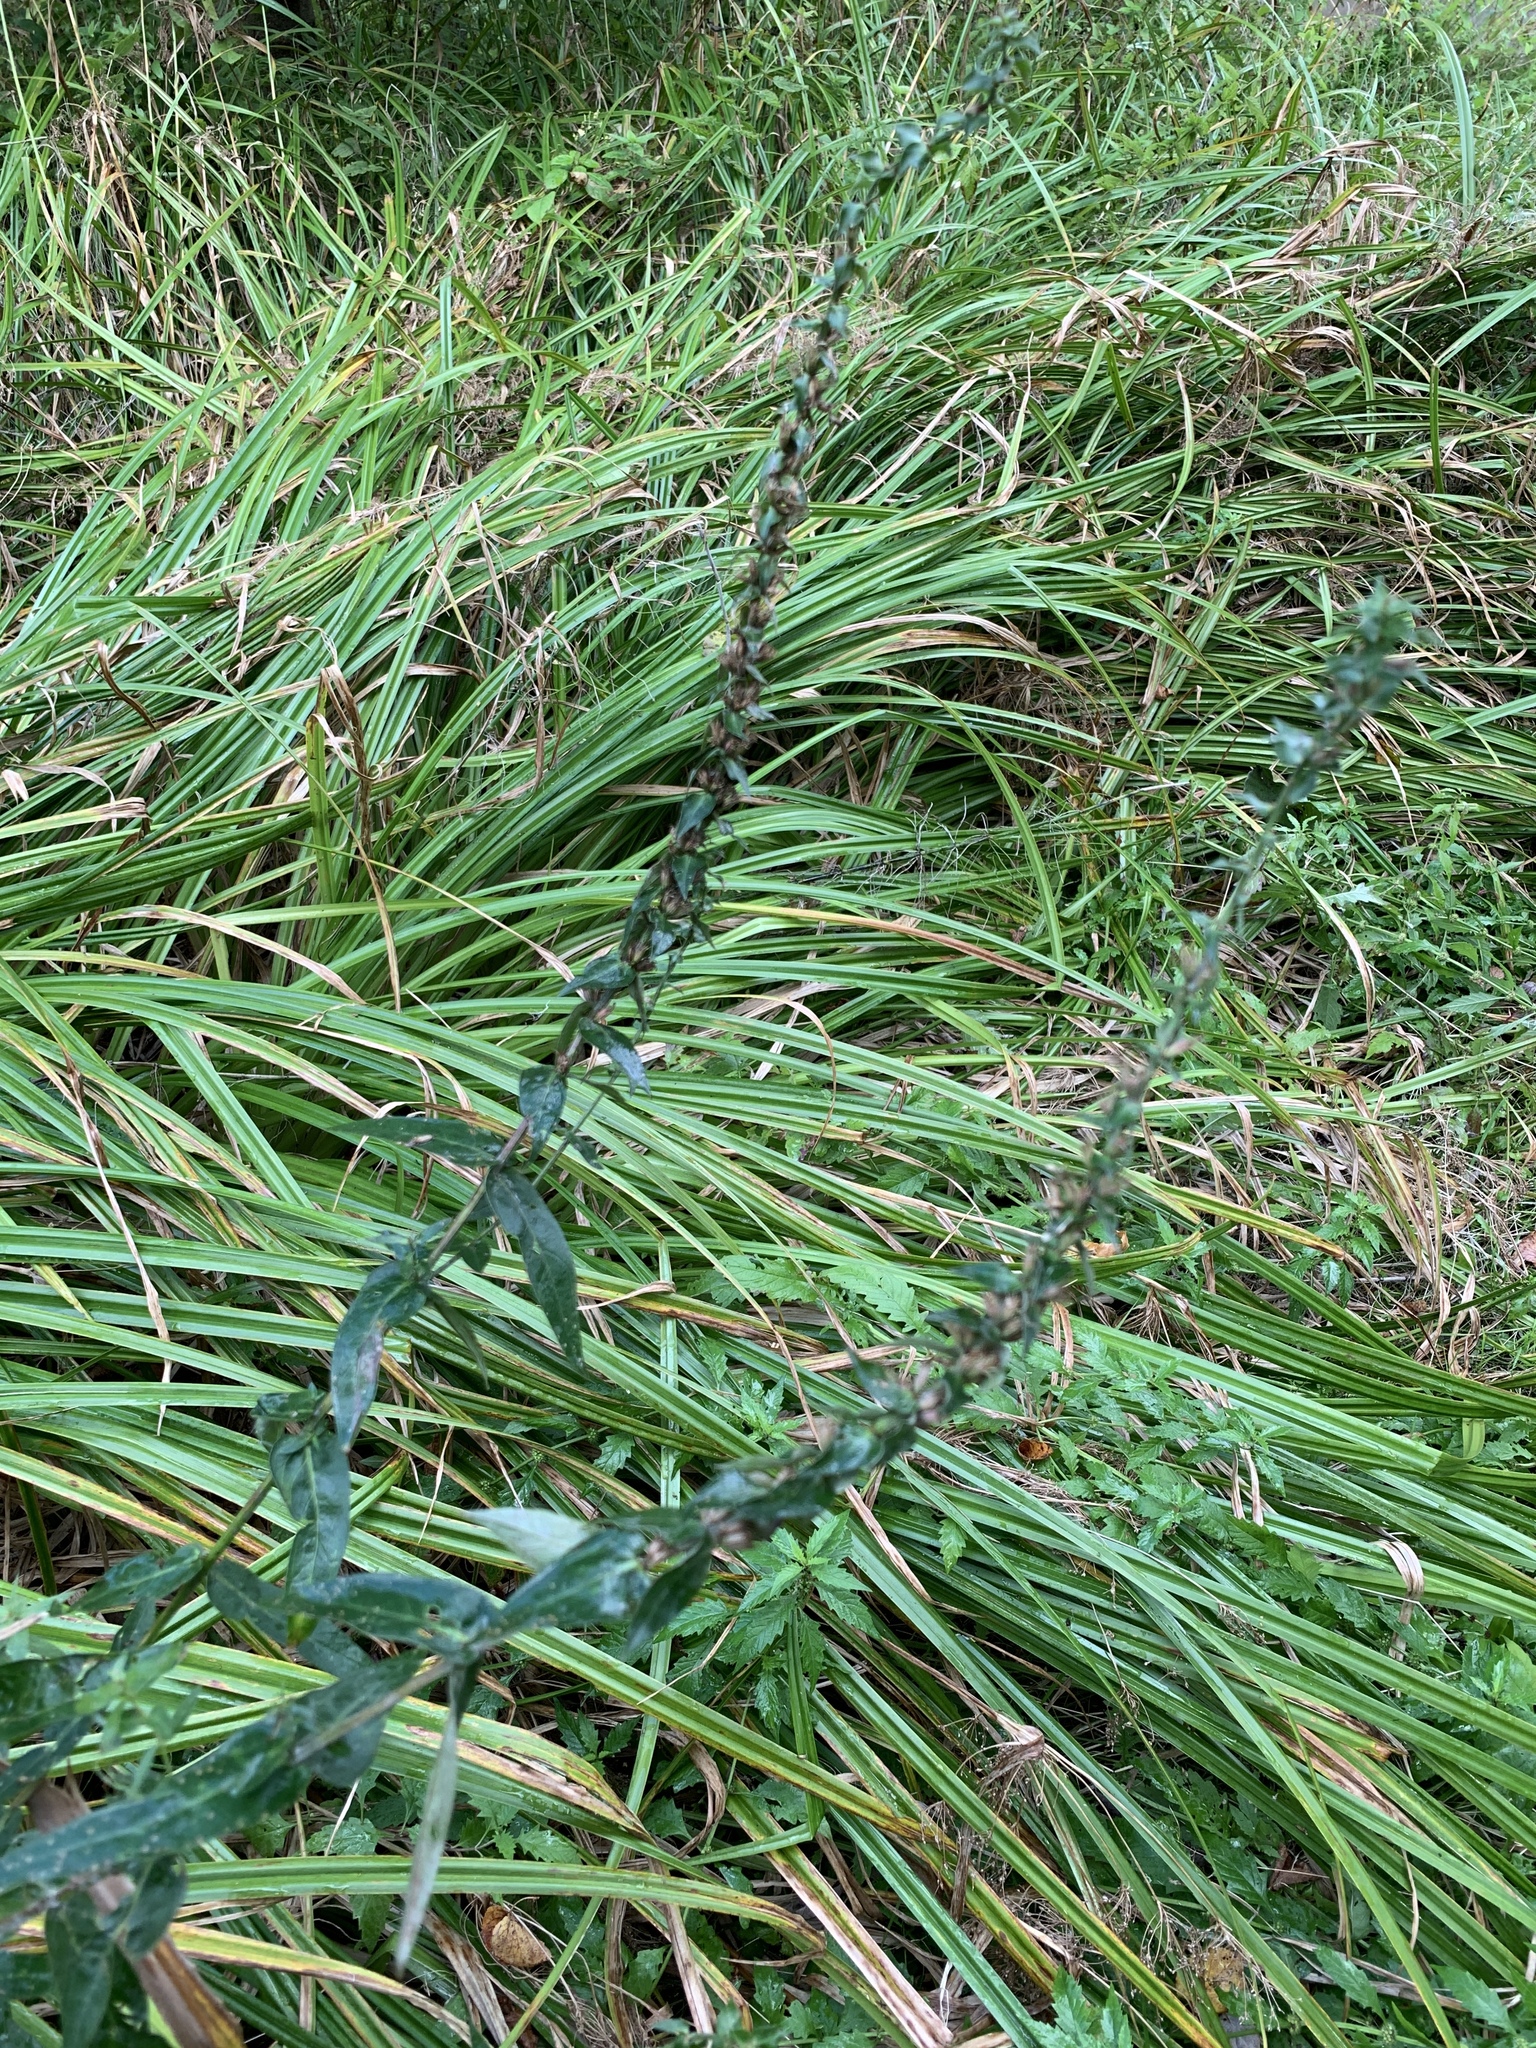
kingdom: Plantae
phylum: Tracheophyta
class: Magnoliopsida
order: Myrtales
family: Lythraceae
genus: Lythrum
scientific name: Lythrum salicaria
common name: Purple loosestrife
